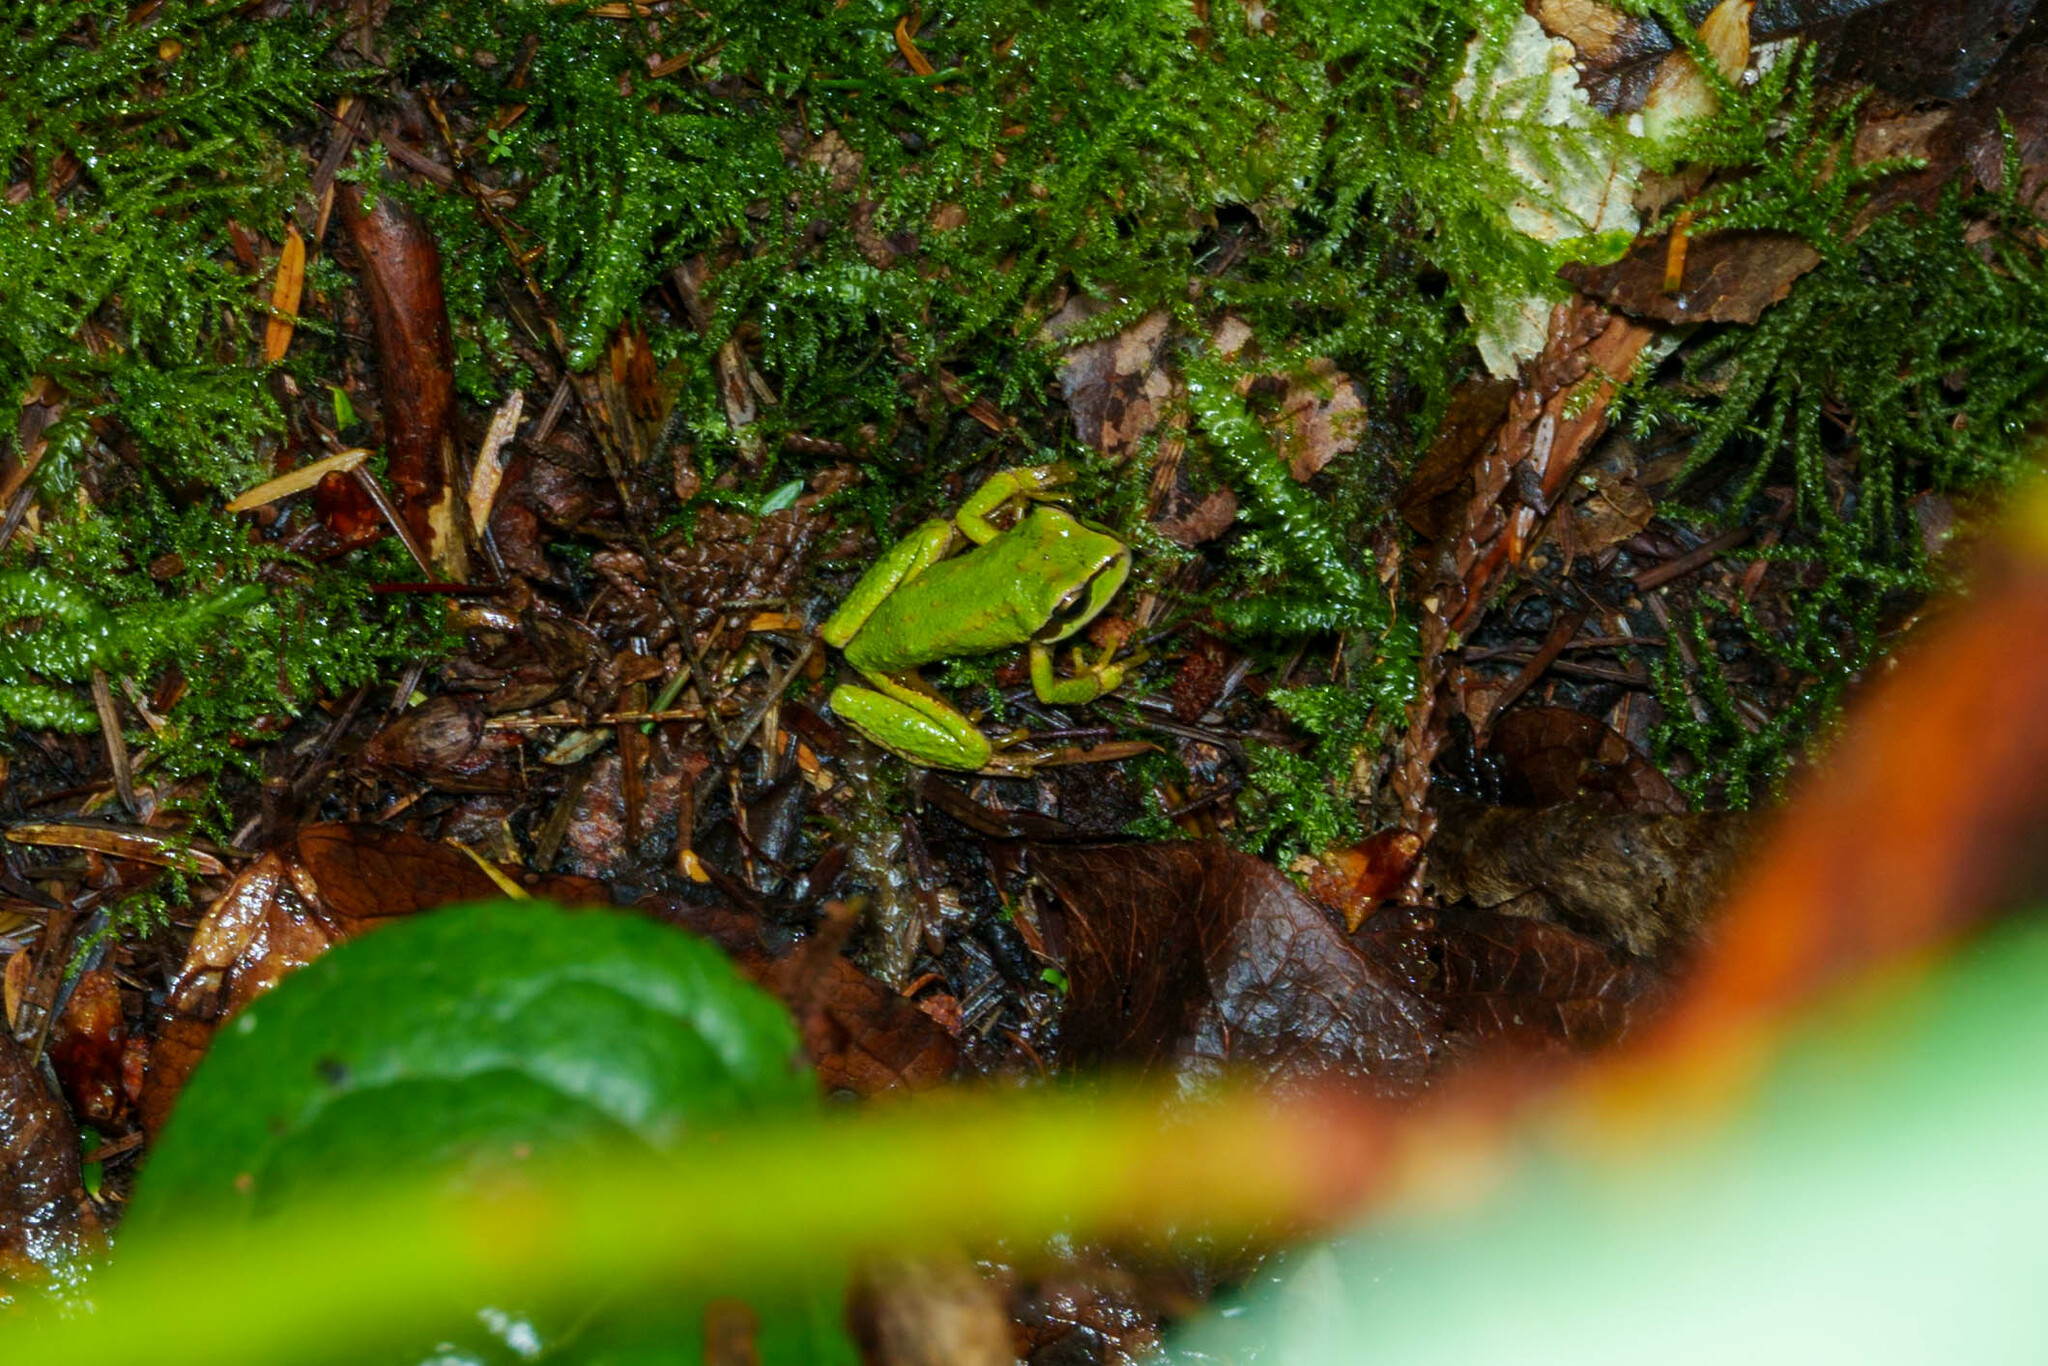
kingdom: Animalia
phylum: Chordata
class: Amphibia
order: Anura
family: Hylidae
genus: Pseudacris
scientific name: Pseudacris regilla
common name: Pacific chorus frog
